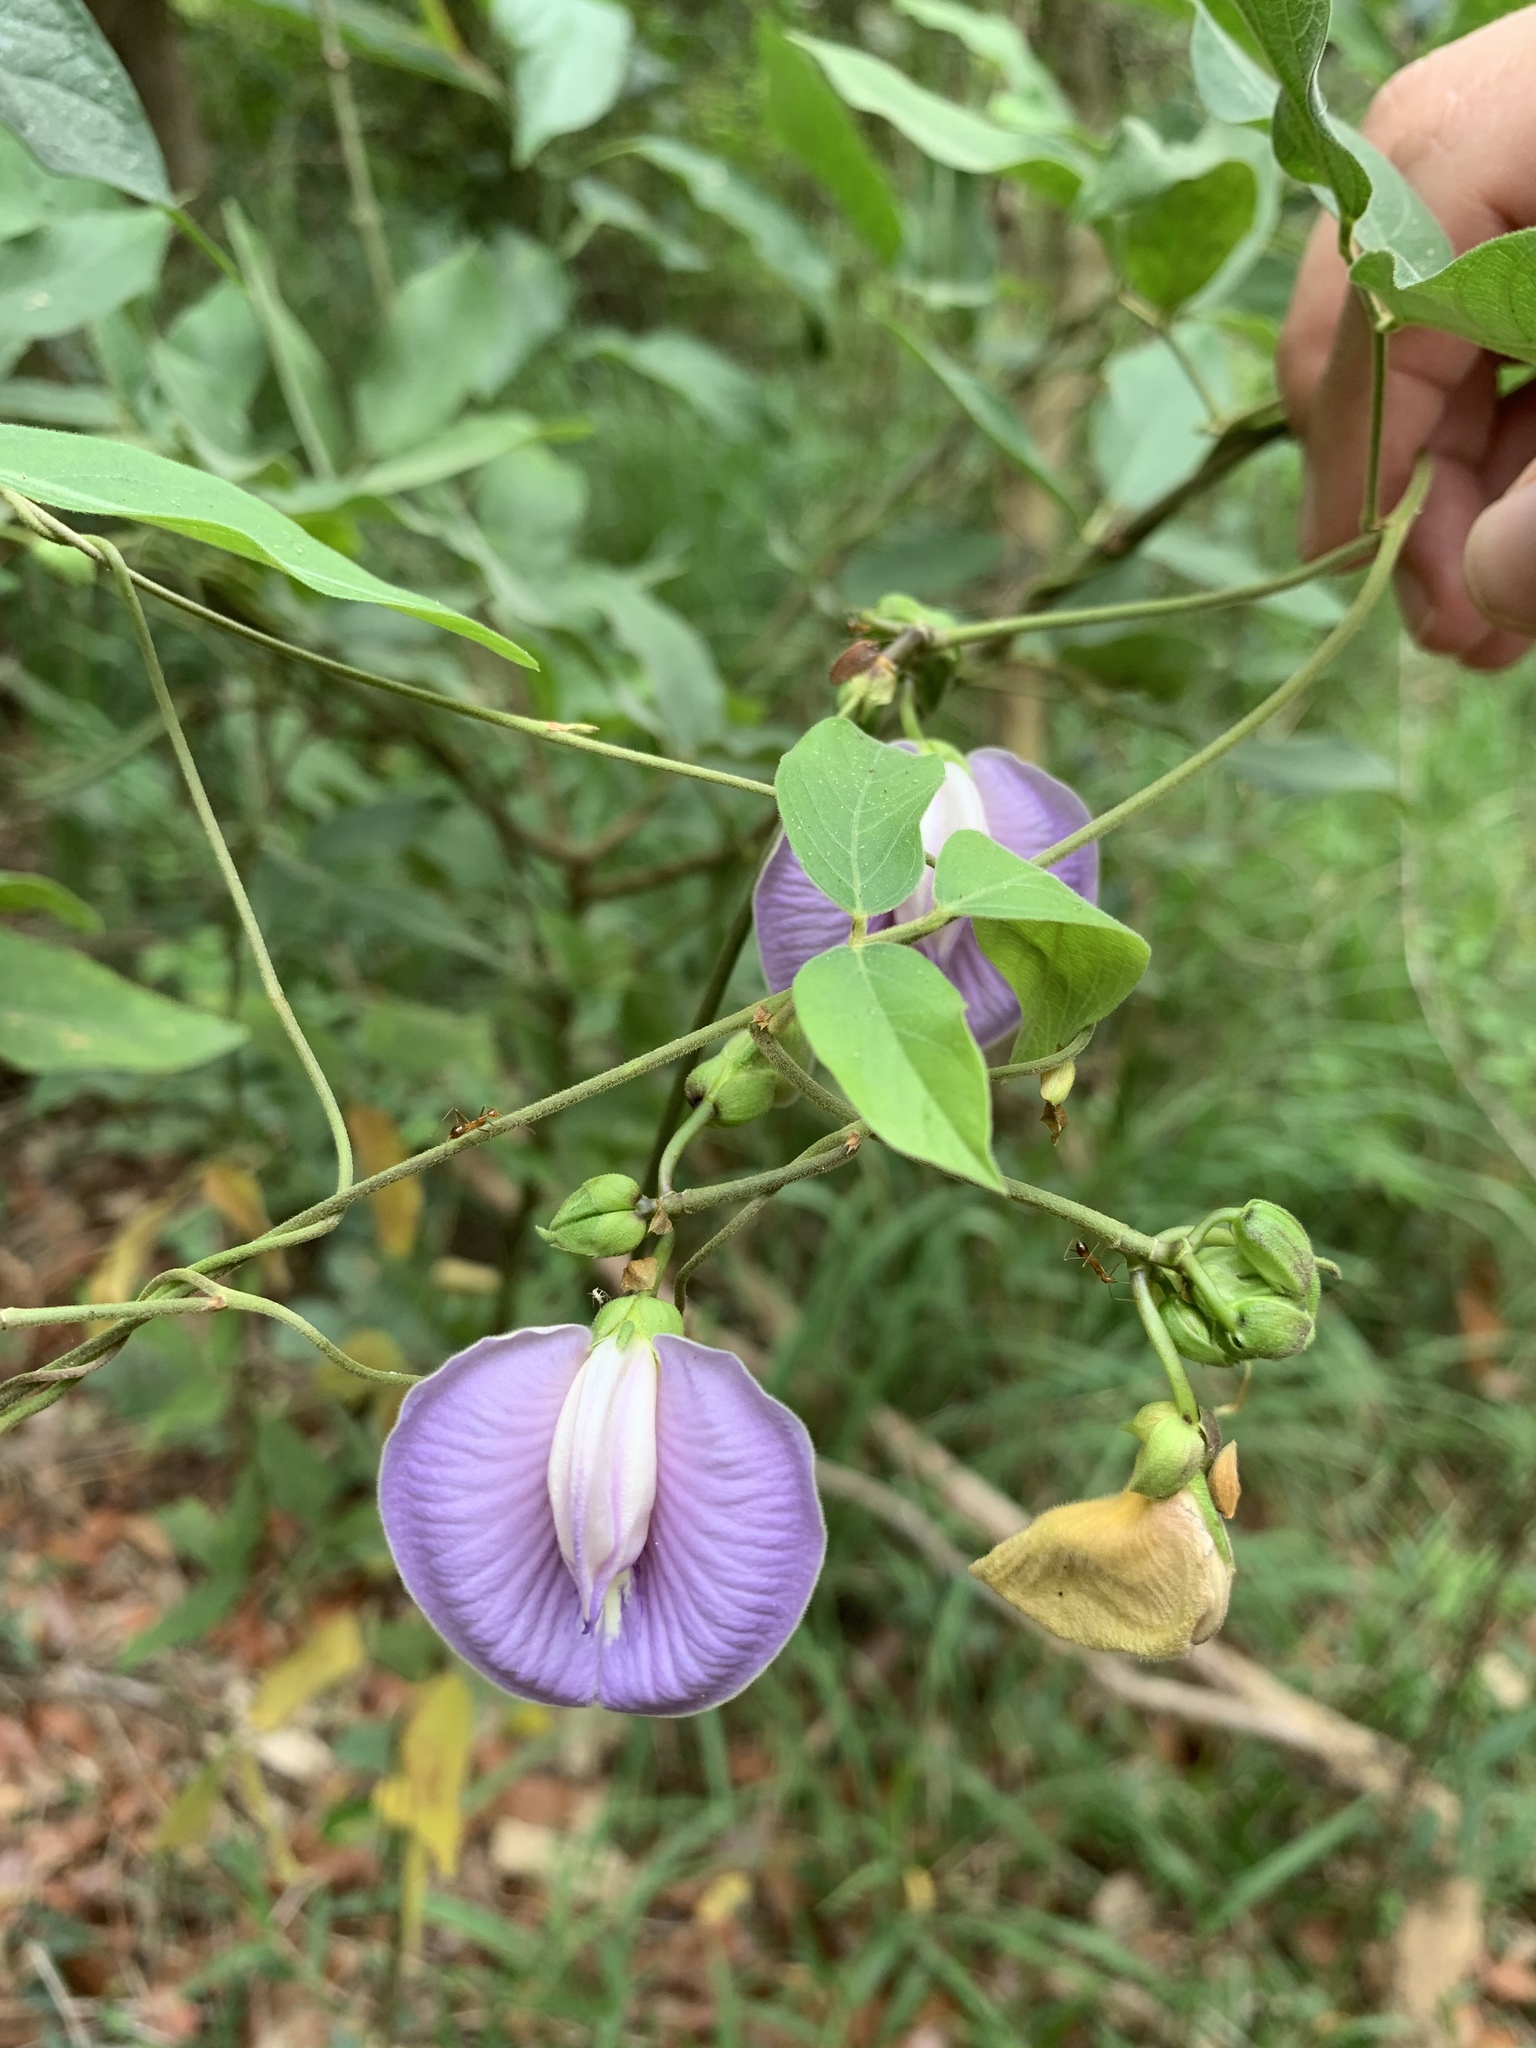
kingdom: Plantae
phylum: Tracheophyta
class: Magnoliopsida
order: Fabales
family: Fabaceae
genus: Centrosema
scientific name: Centrosema pubescens
